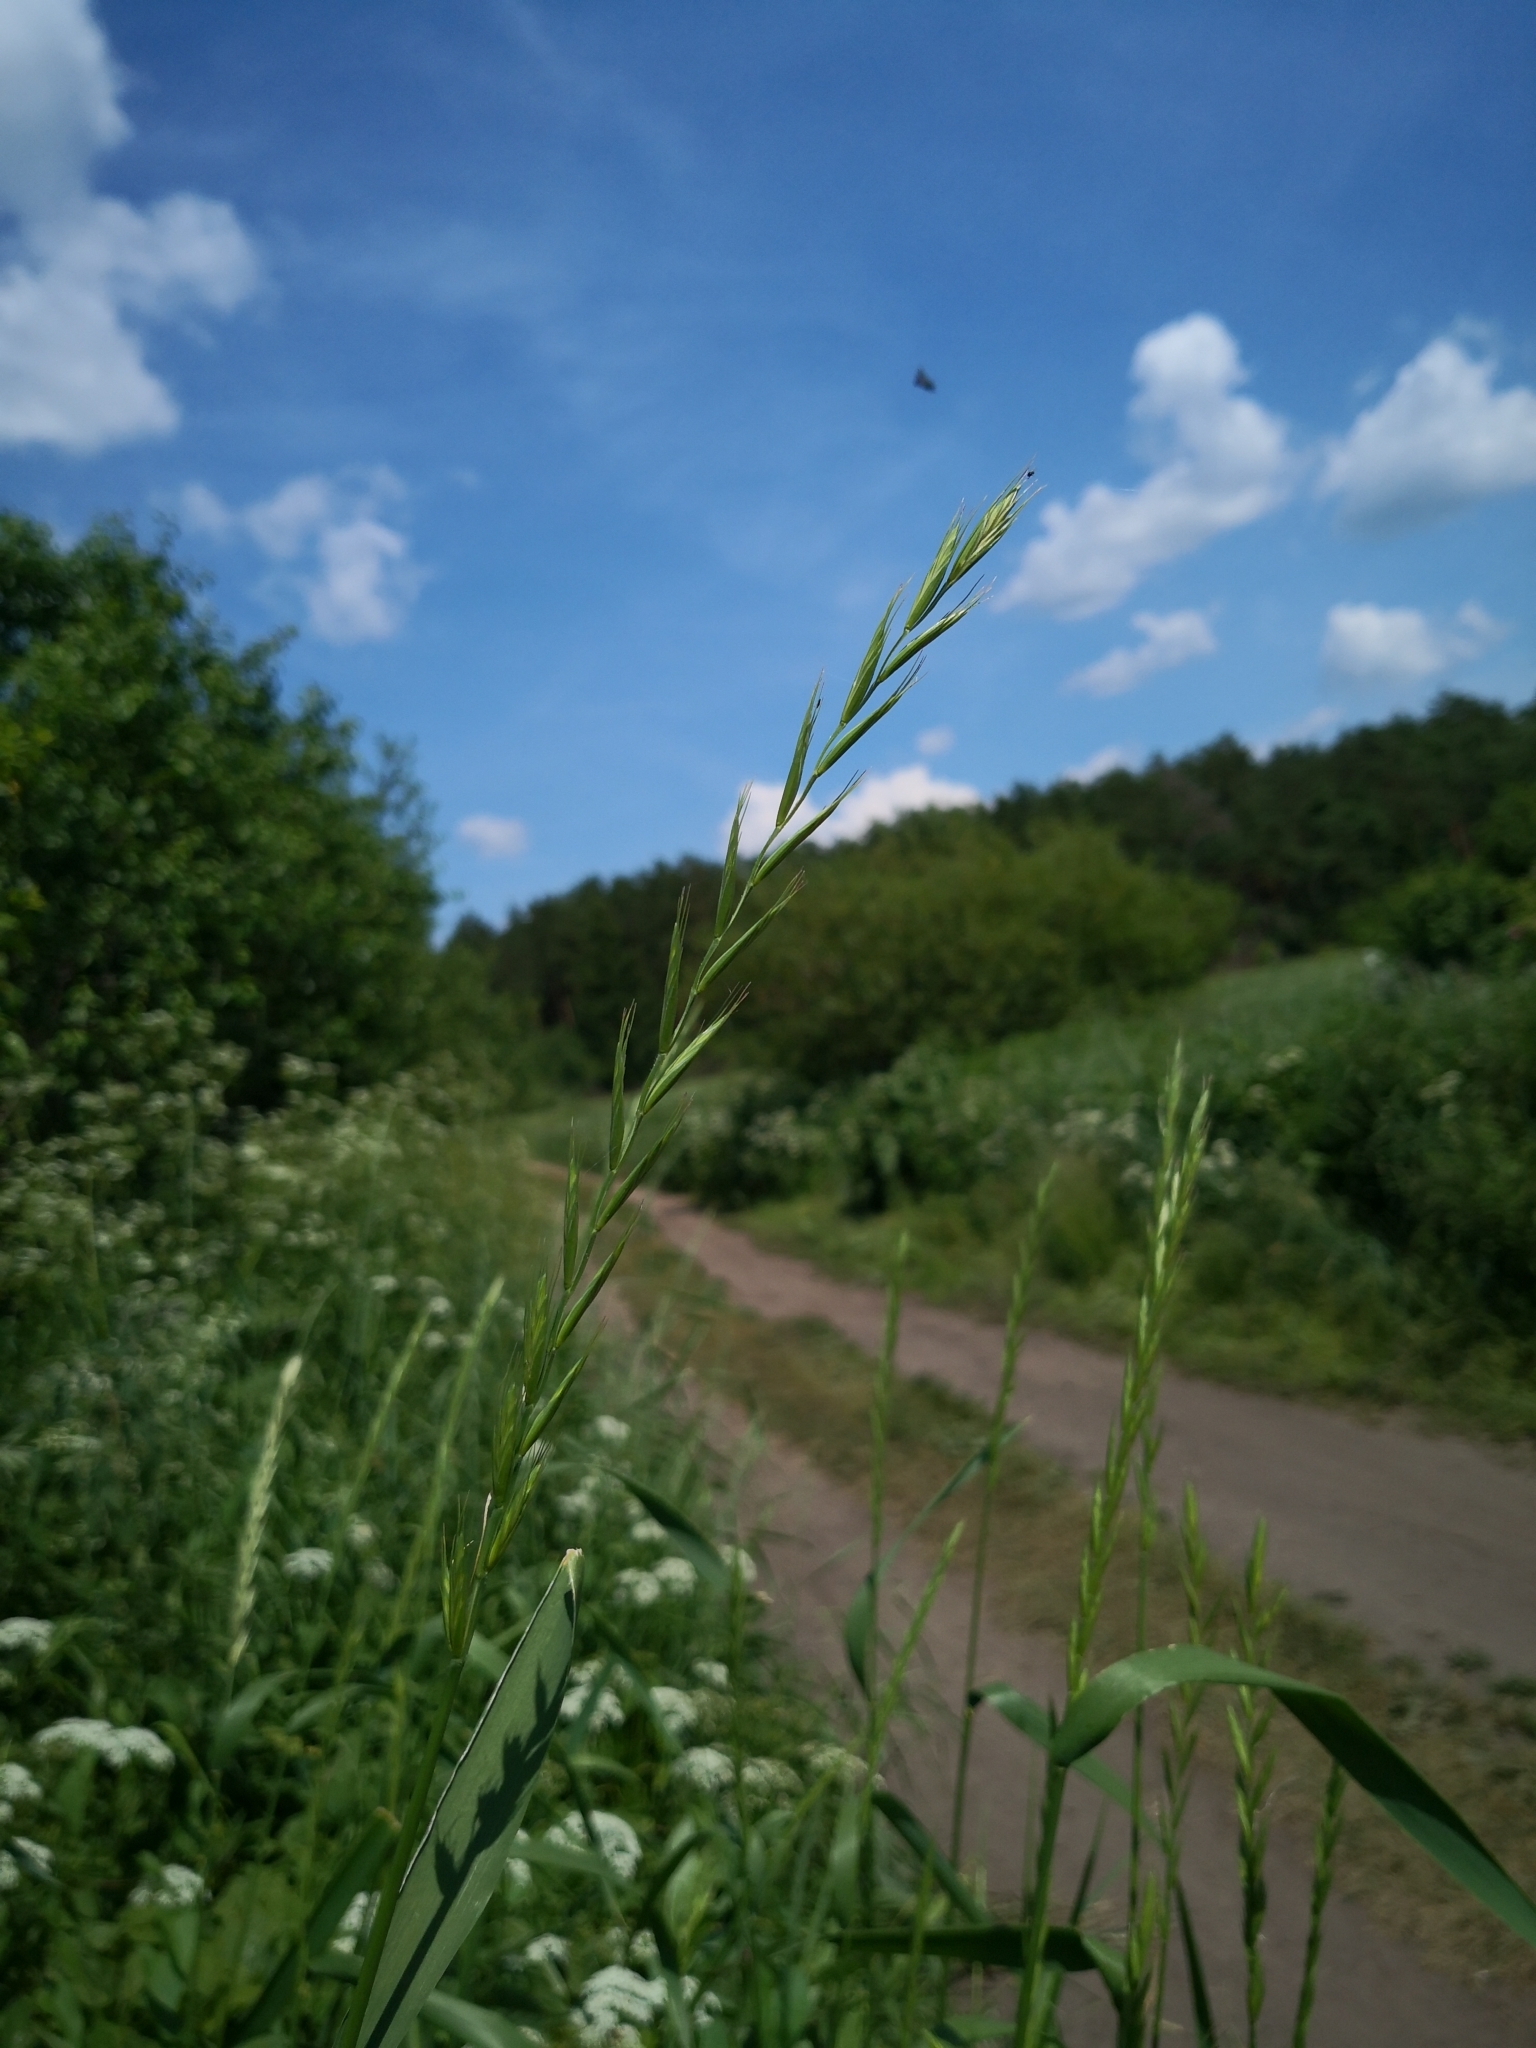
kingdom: Plantae
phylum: Tracheophyta
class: Liliopsida
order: Poales
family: Poaceae
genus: Elymus
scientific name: Elymus repens
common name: Quackgrass
